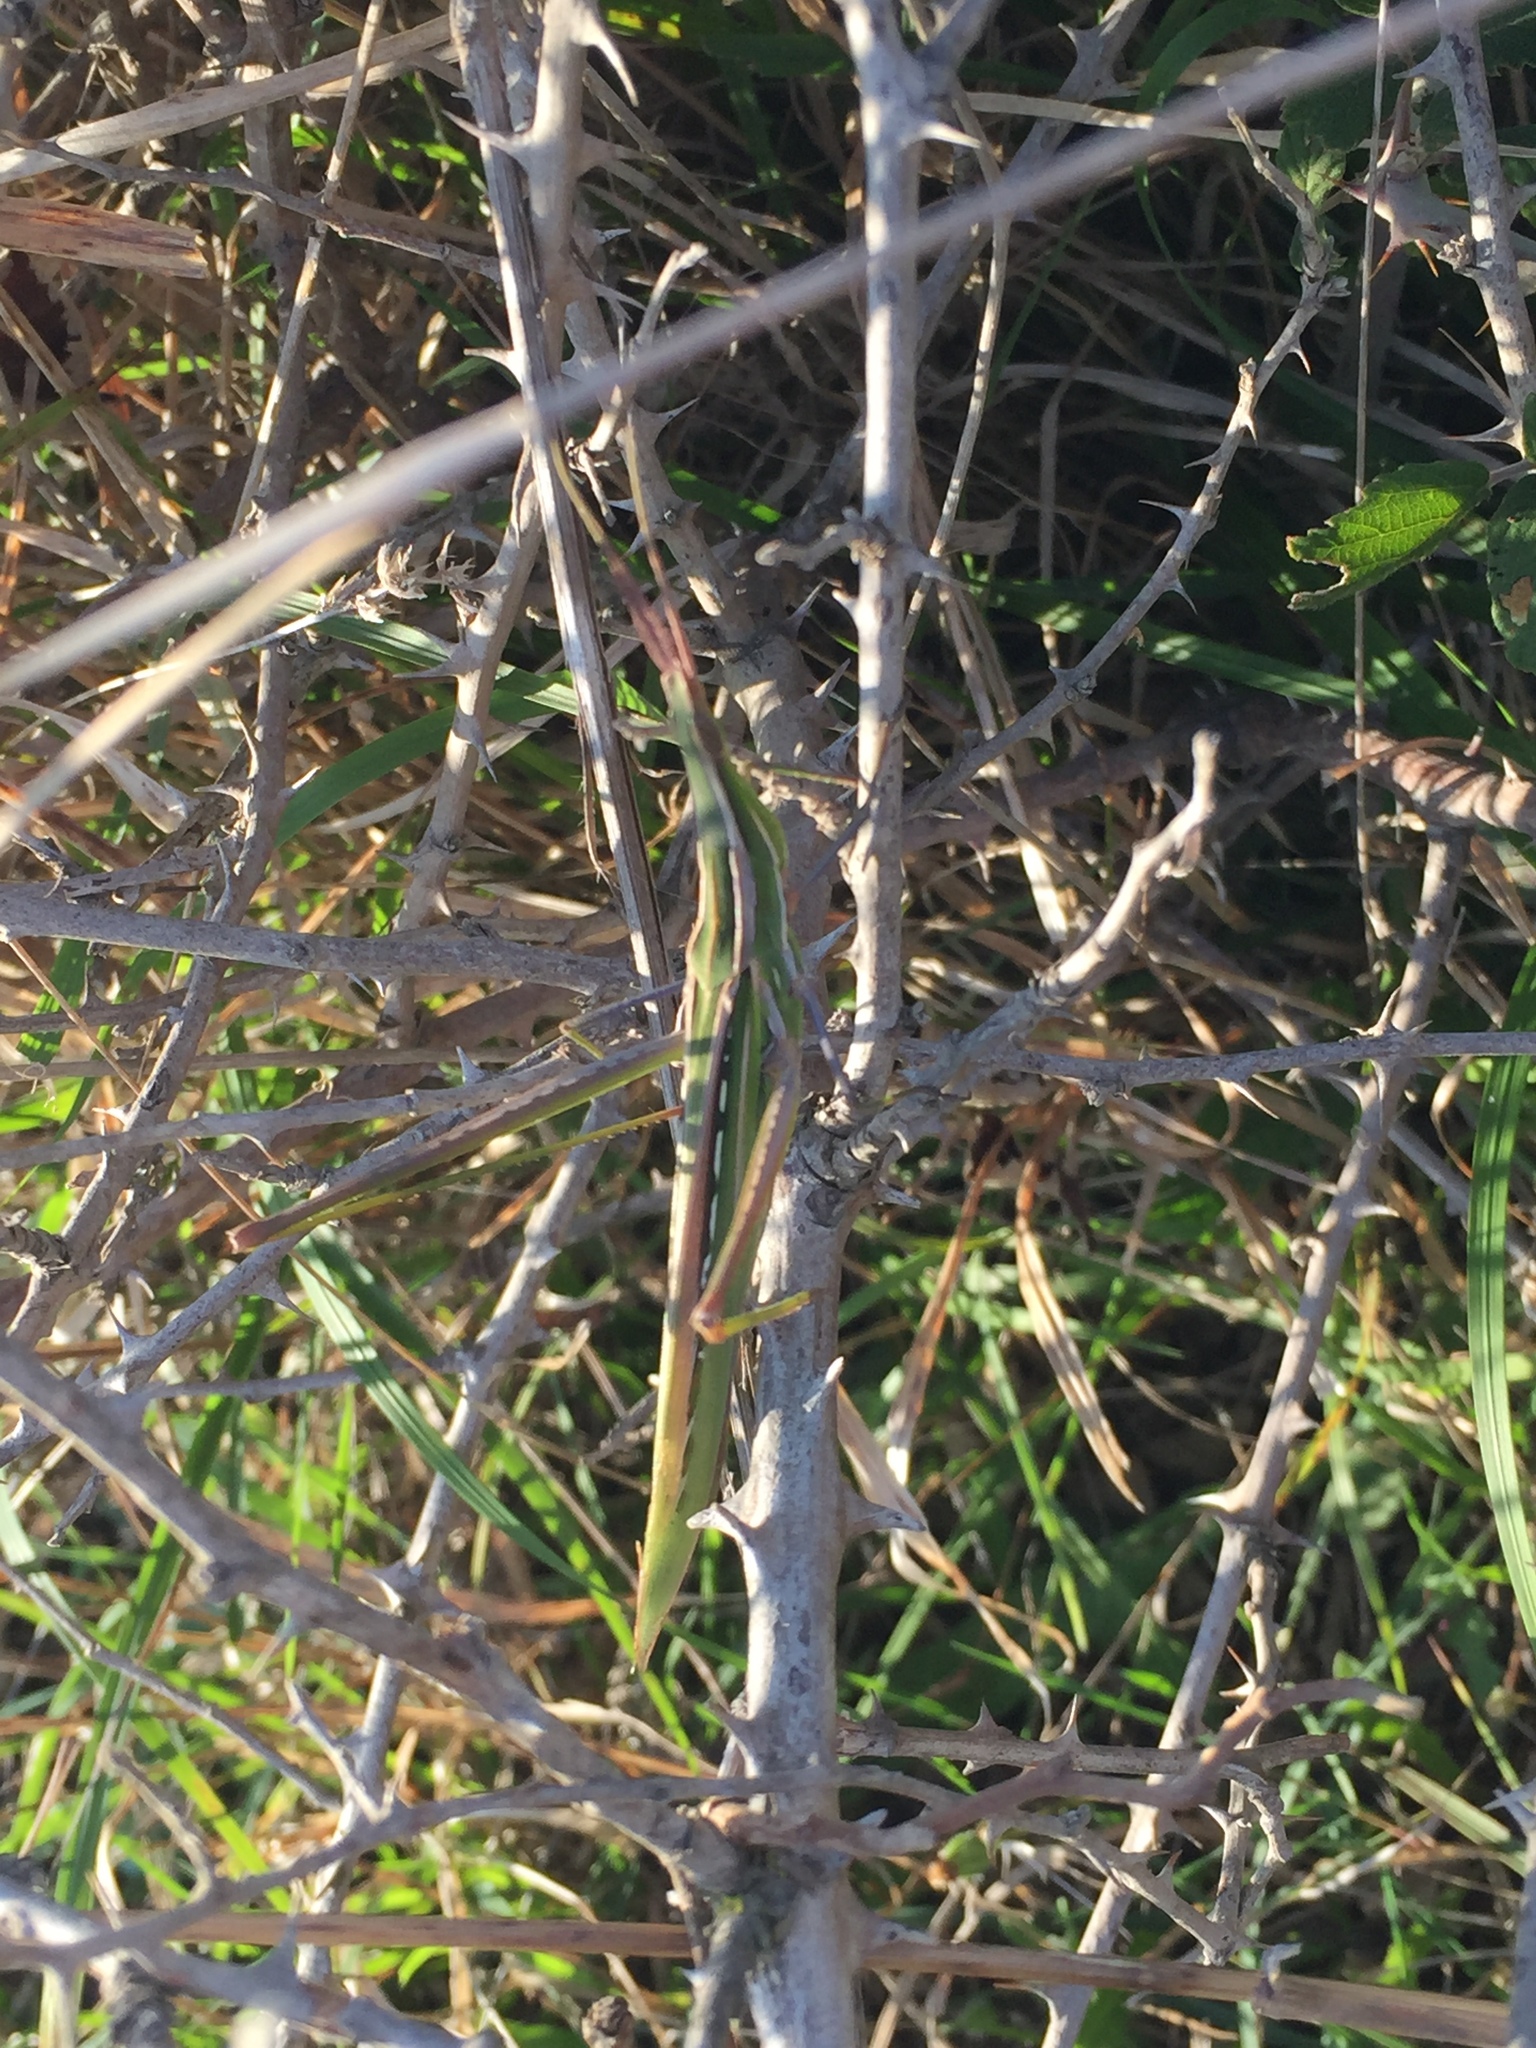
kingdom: Animalia
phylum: Arthropoda
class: Insecta
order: Orthoptera
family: Acrididae
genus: Acrida
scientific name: Acrida ungarica
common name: Common cone-headed grasshopper
